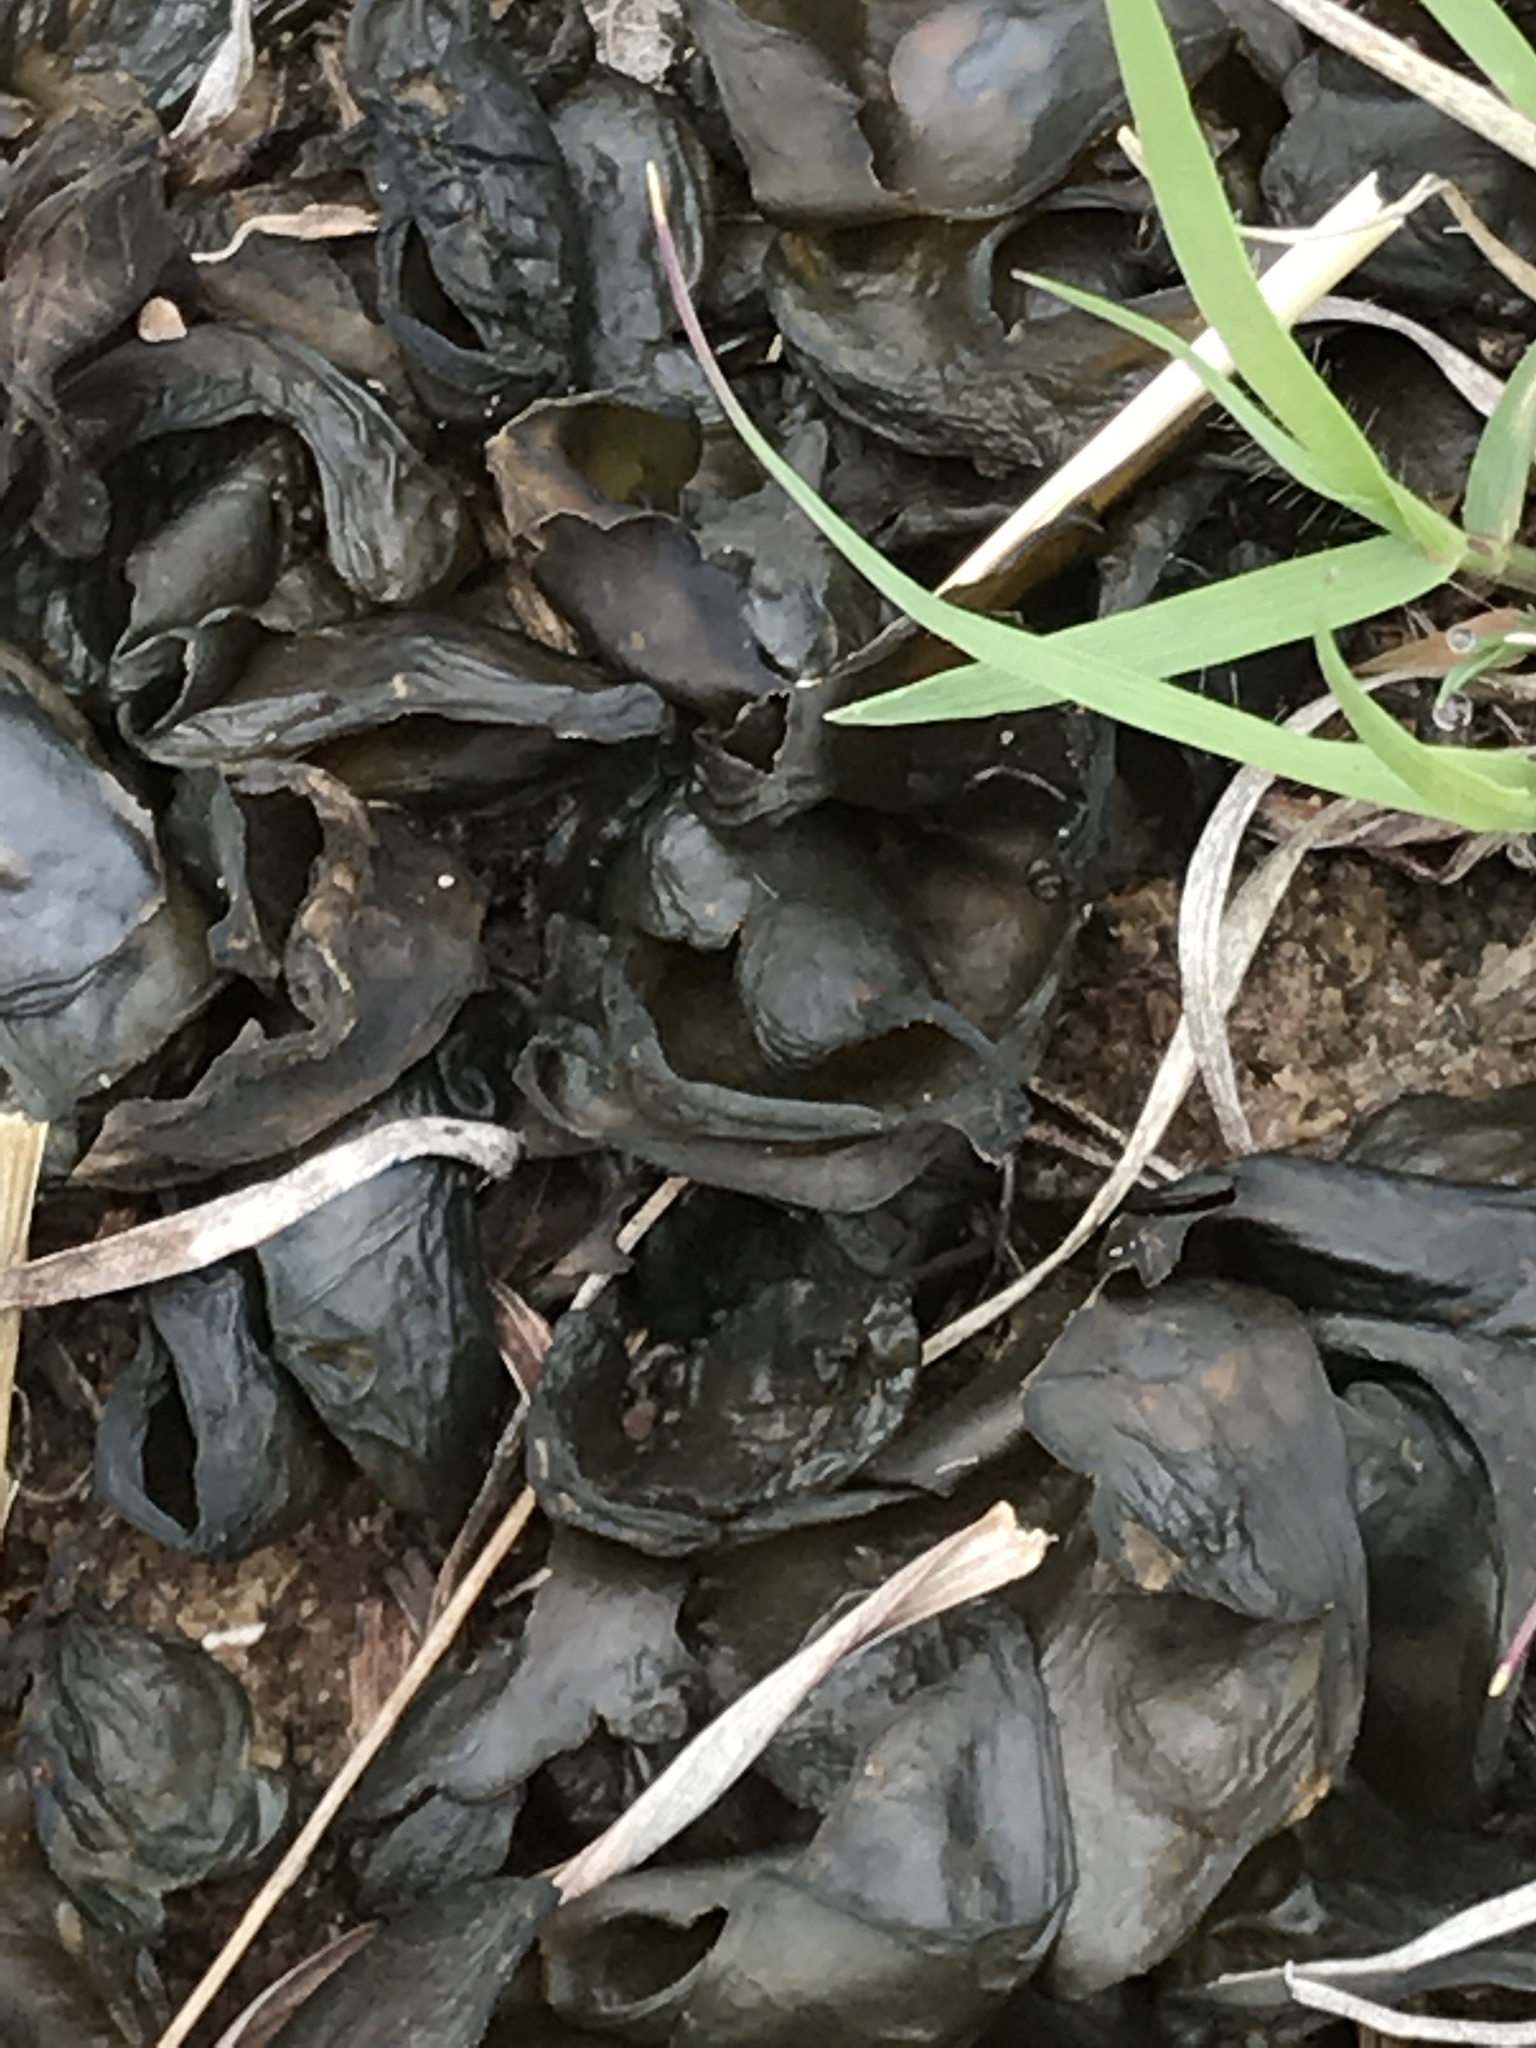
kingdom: Bacteria
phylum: Cyanobacteria
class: Cyanobacteriia
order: Cyanobacteriales
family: Nostocaceae
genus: Nostoc
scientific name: Nostoc commune
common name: Star jelly
